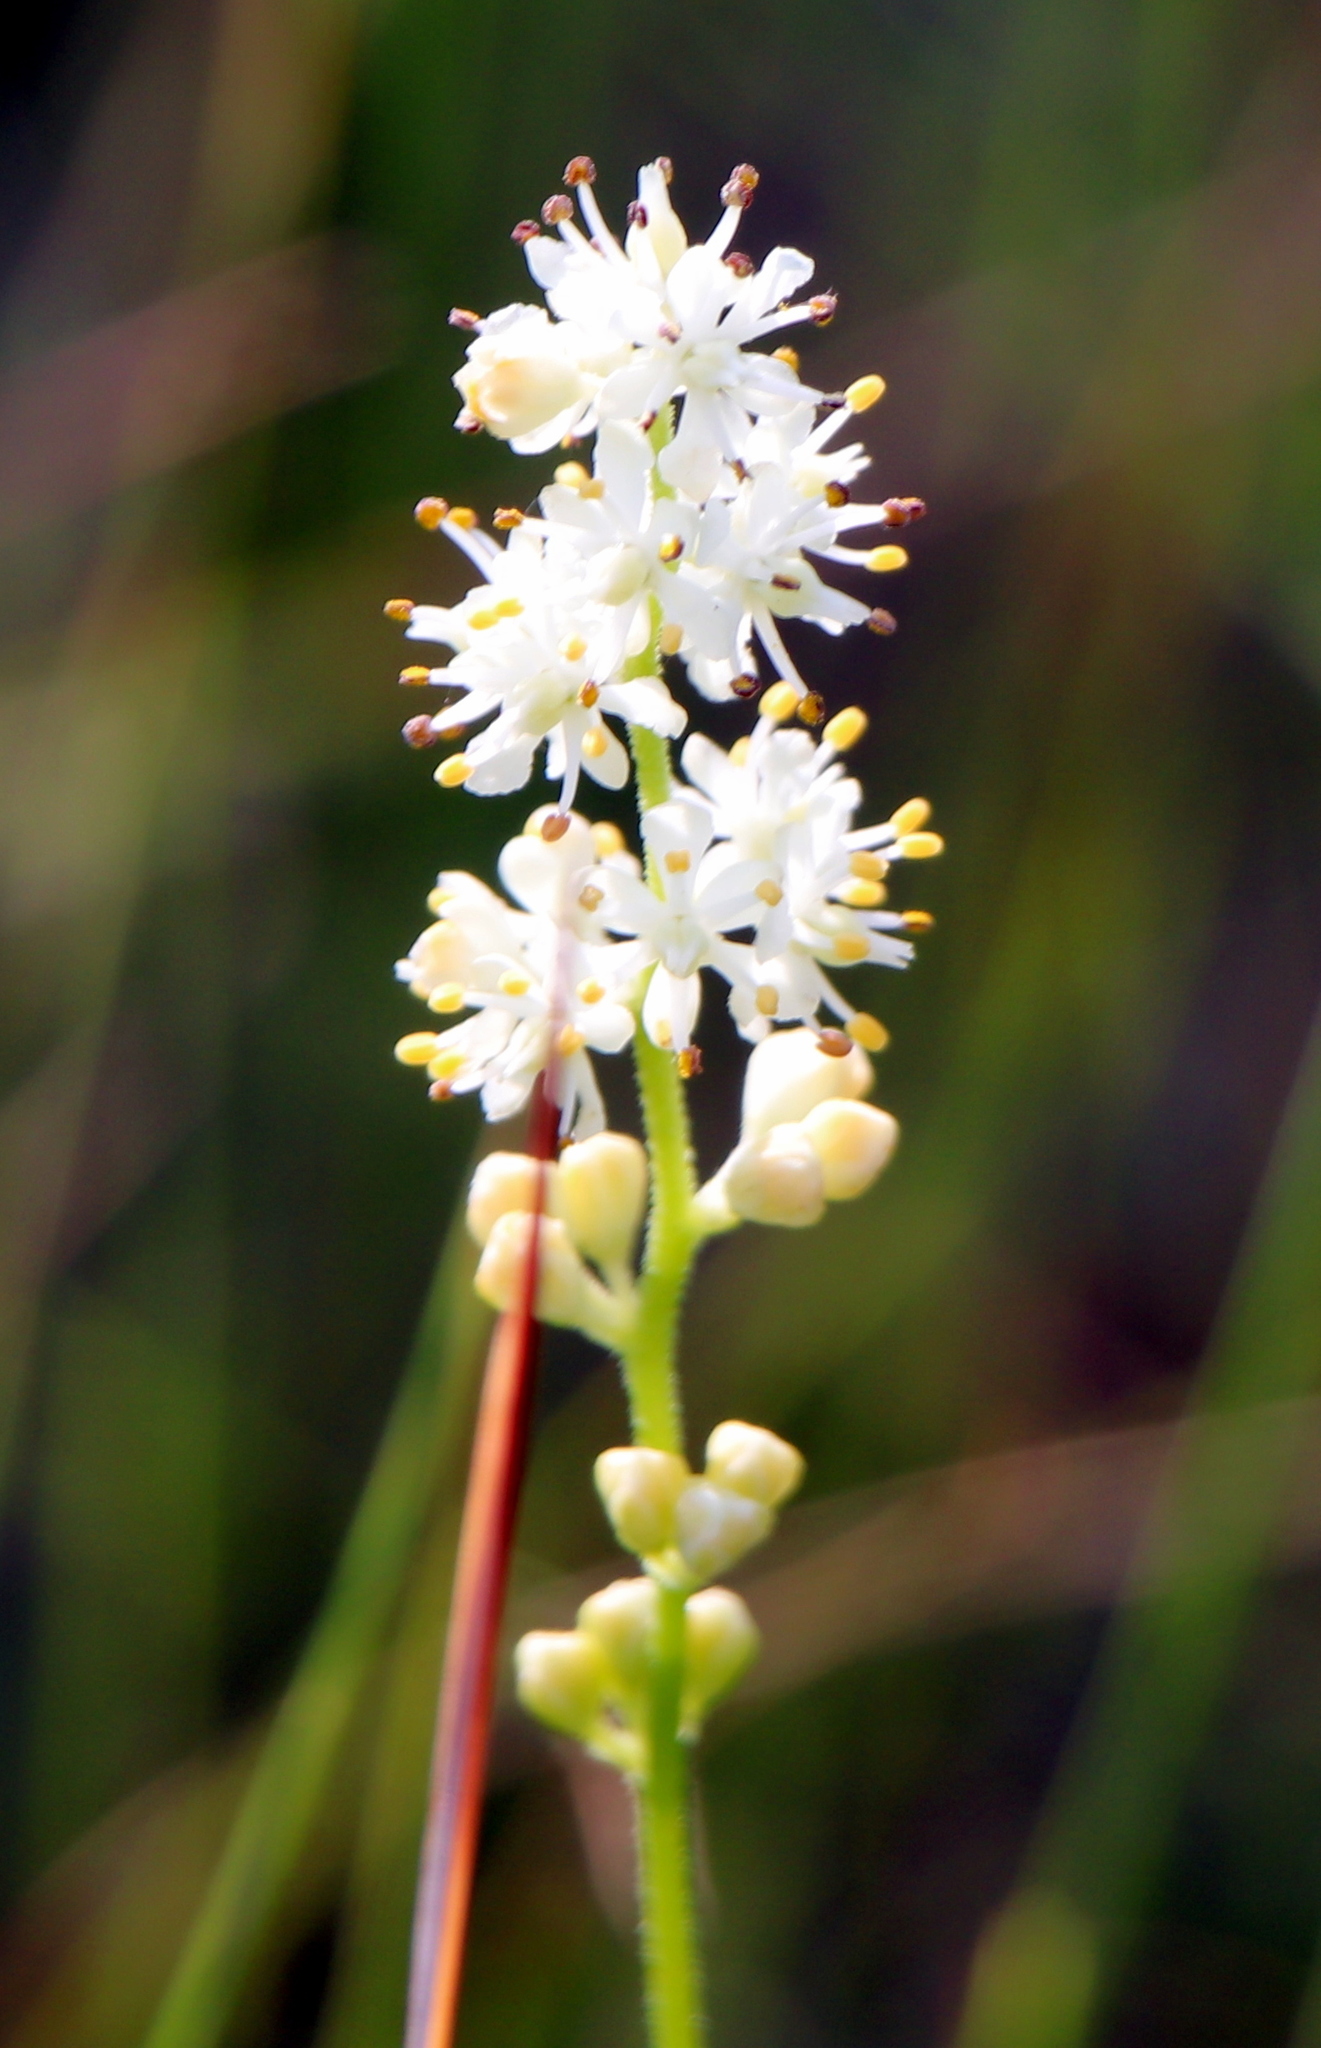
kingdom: Plantae
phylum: Tracheophyta
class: Liliopsida
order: Alismatales
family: Tofieldiaceae
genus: Triantha
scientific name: Triantha racemosa
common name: Coastal false asphodel
